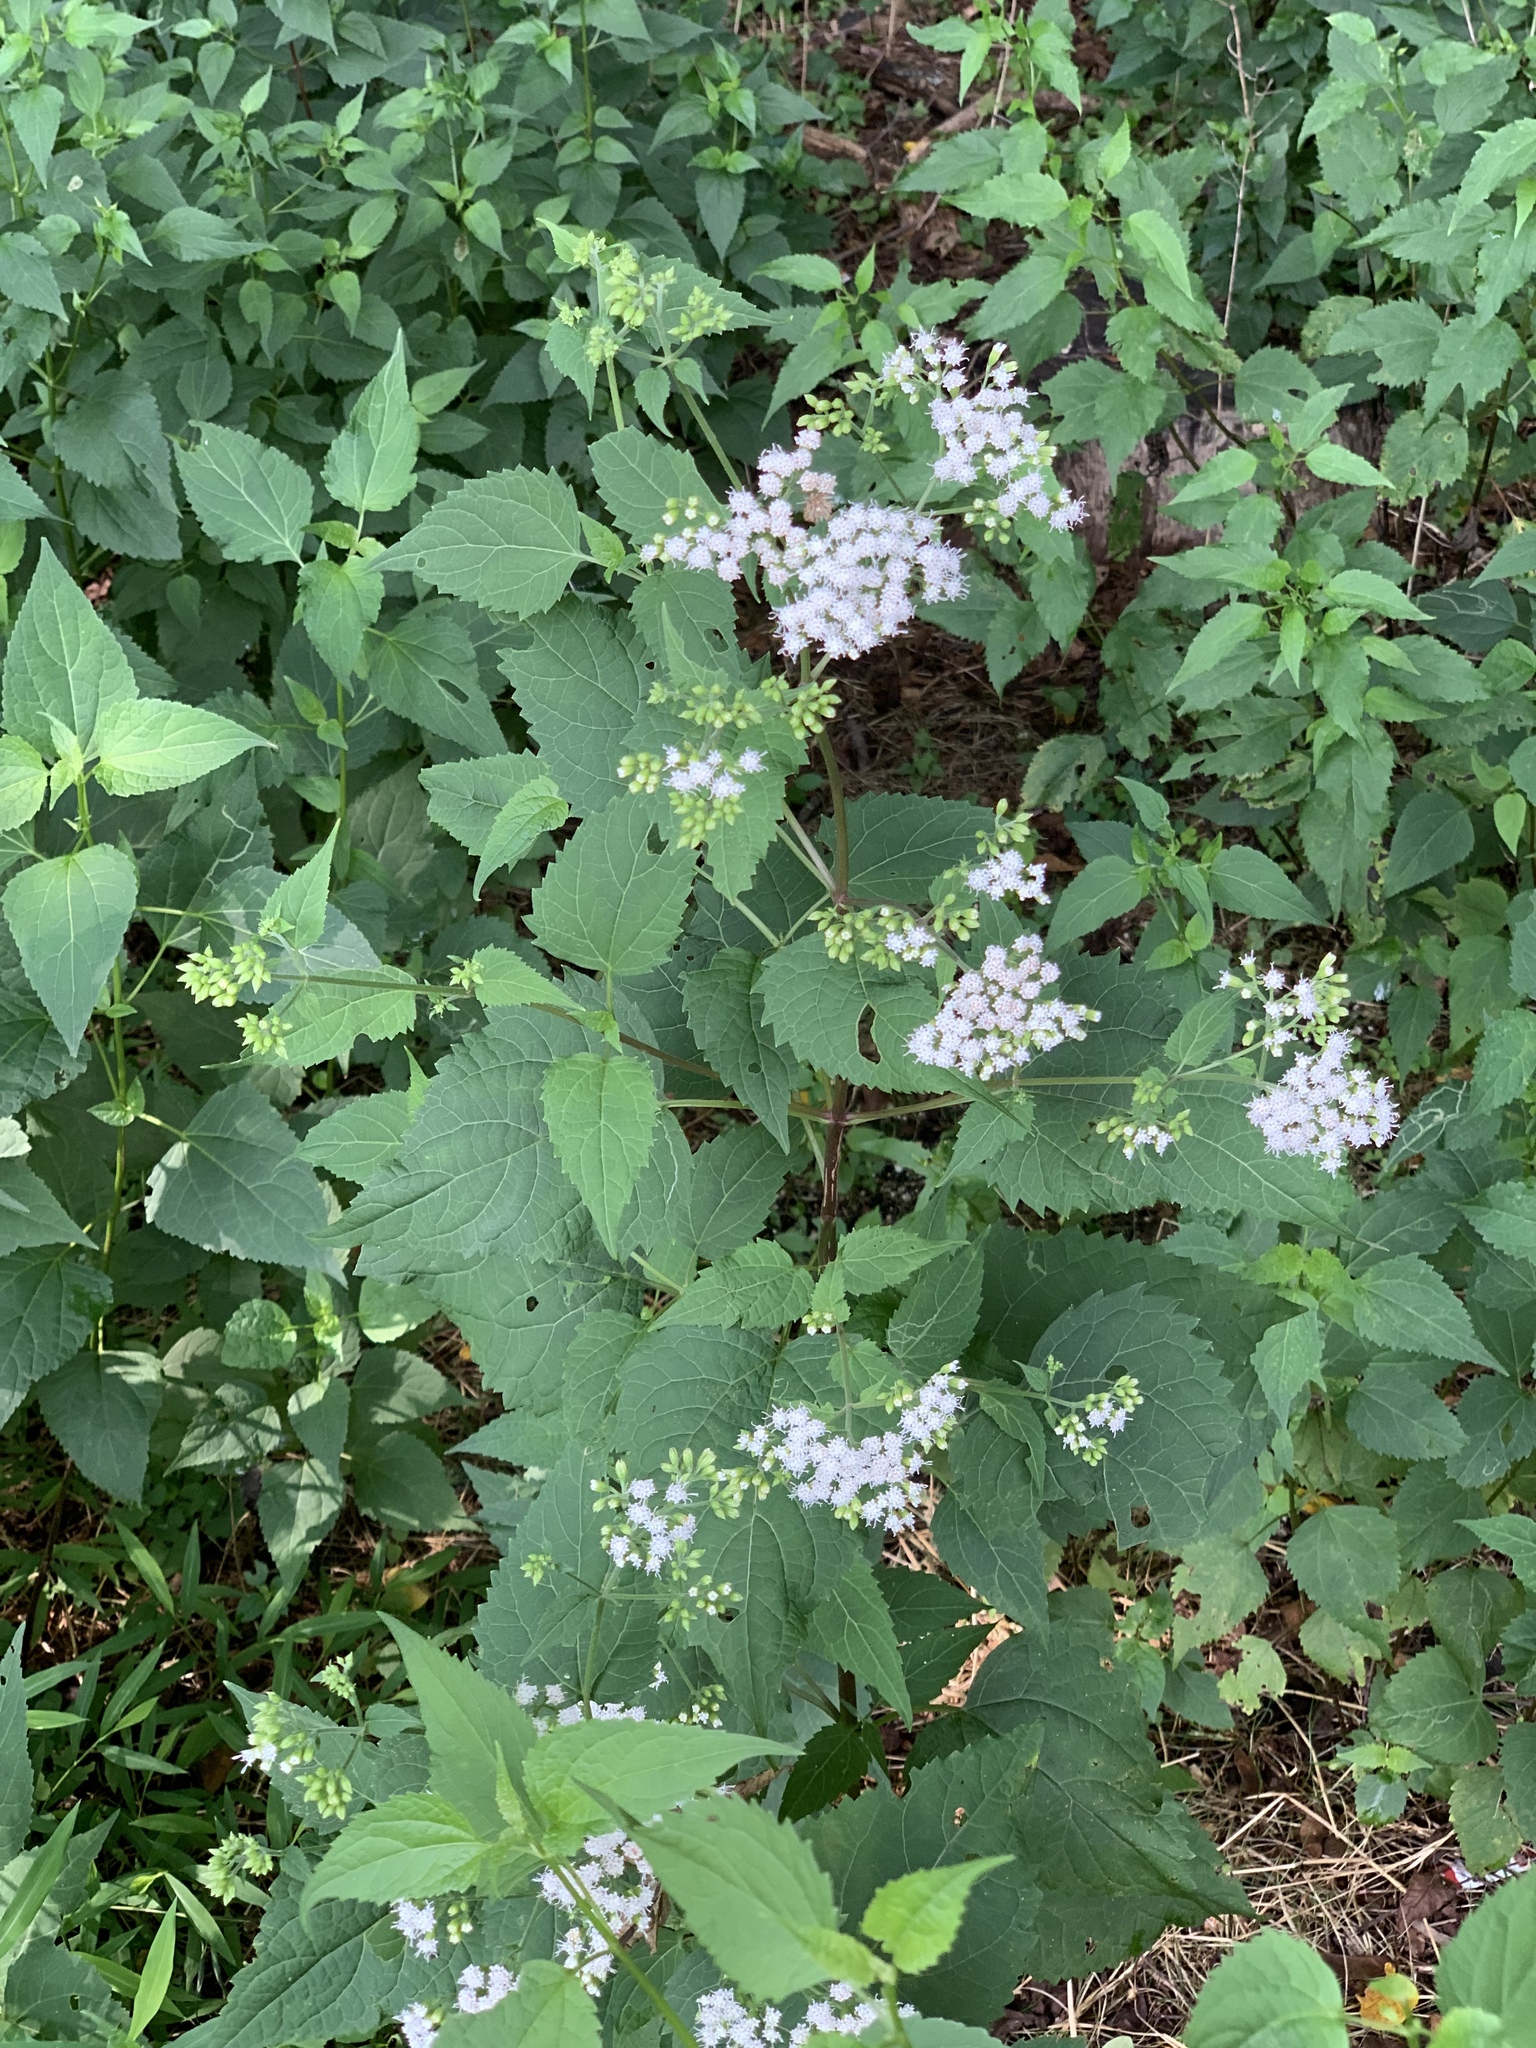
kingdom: Plantae
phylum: Tracheophyta
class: Magnoliopsida
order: Asterales
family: Asteraceae
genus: Ageratina
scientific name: Ageratina altissima
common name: White snakeroot
